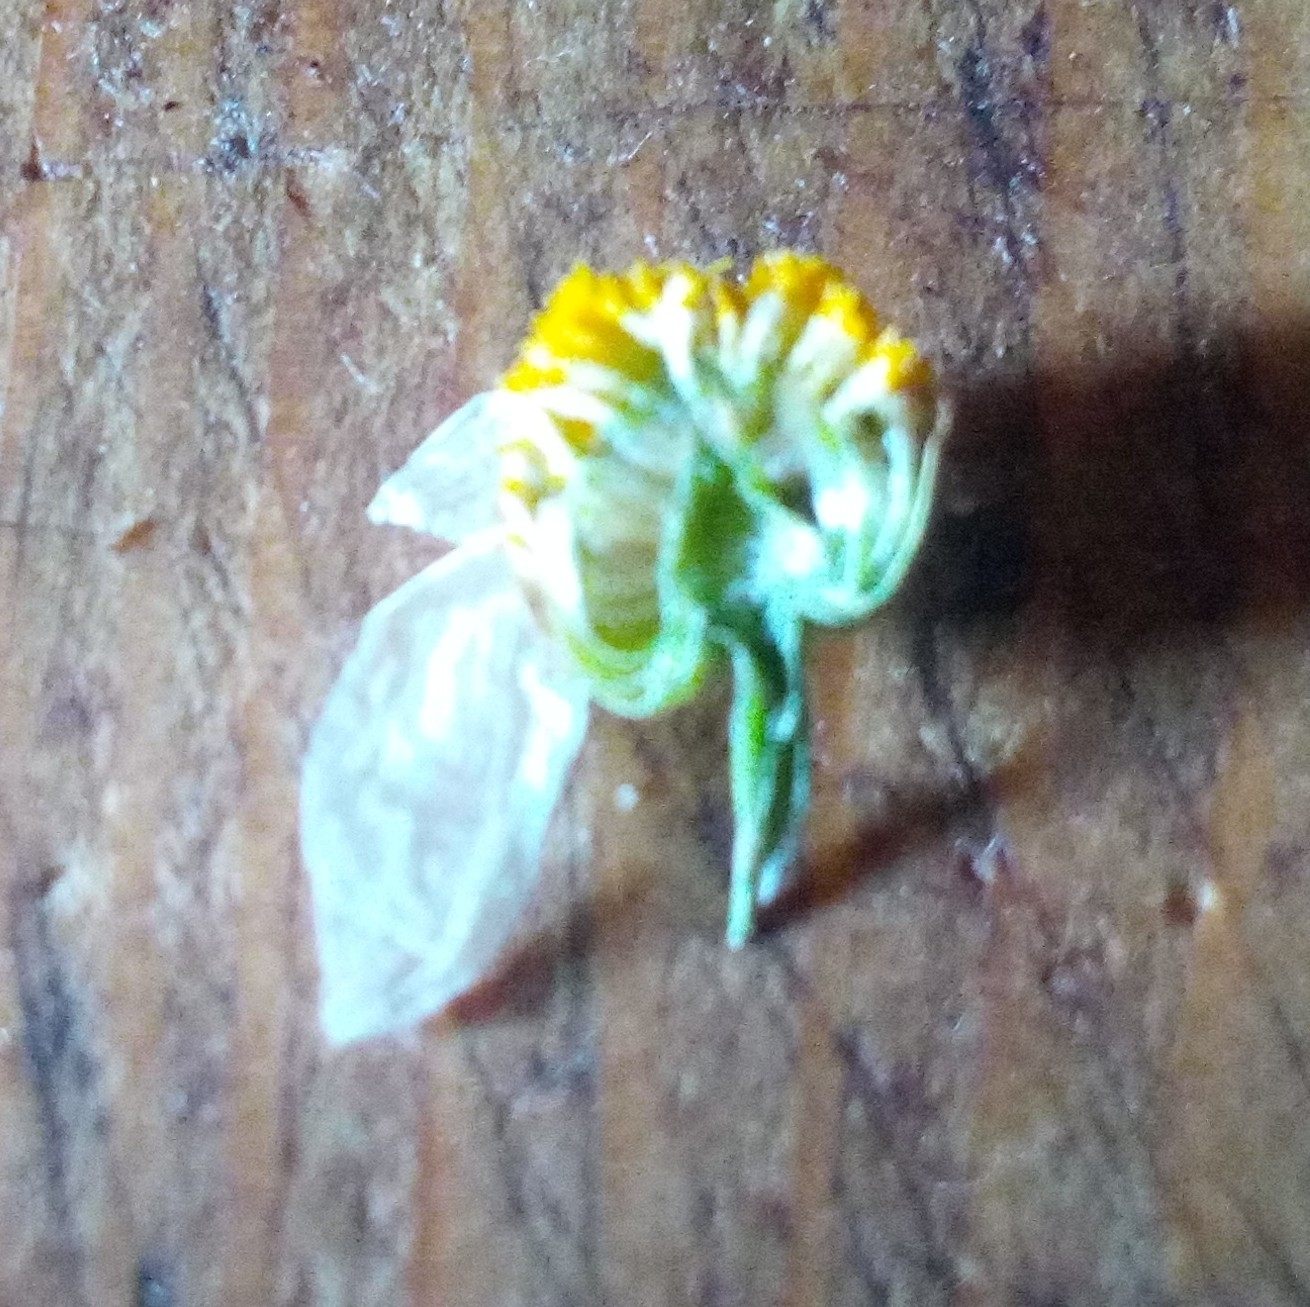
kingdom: Plantae
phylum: Tracheophyta
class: Magnoliopsida
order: Asterales
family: Asteraceae
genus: Tripleurospermum
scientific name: Tripleurospermum inodorum
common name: Scentless mayweed
